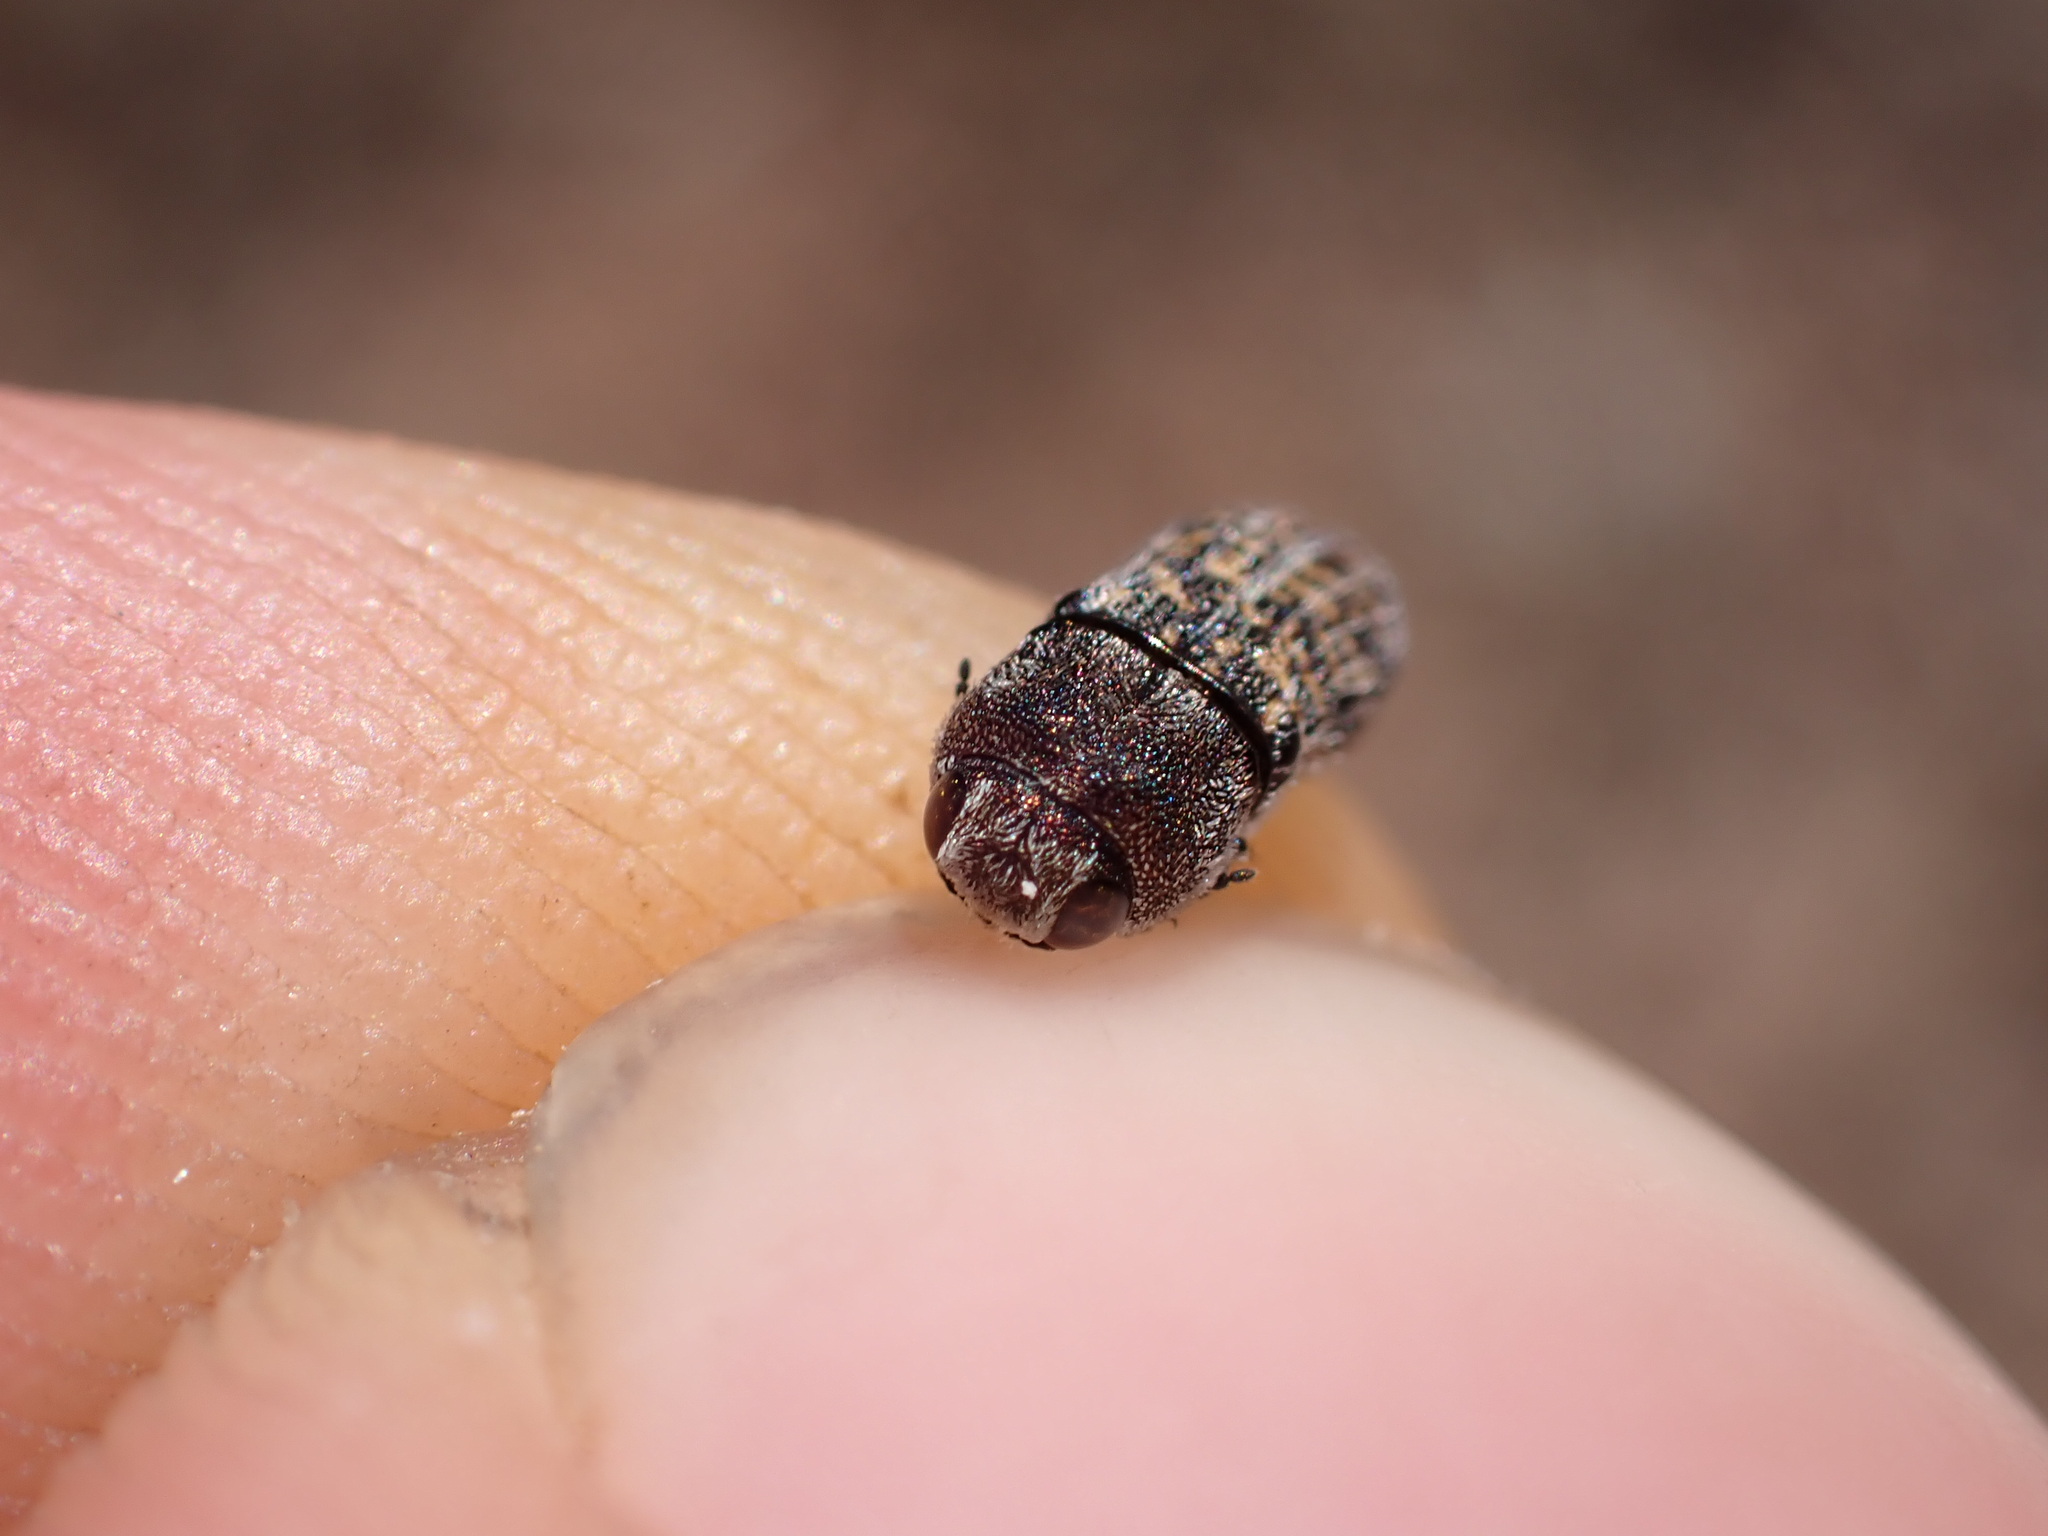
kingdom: Animalia
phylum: Arthropoda
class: Insecta
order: Coleoptera
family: Buprestidae
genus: Acmaeoderella
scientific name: Acmaeoderella adspersula
